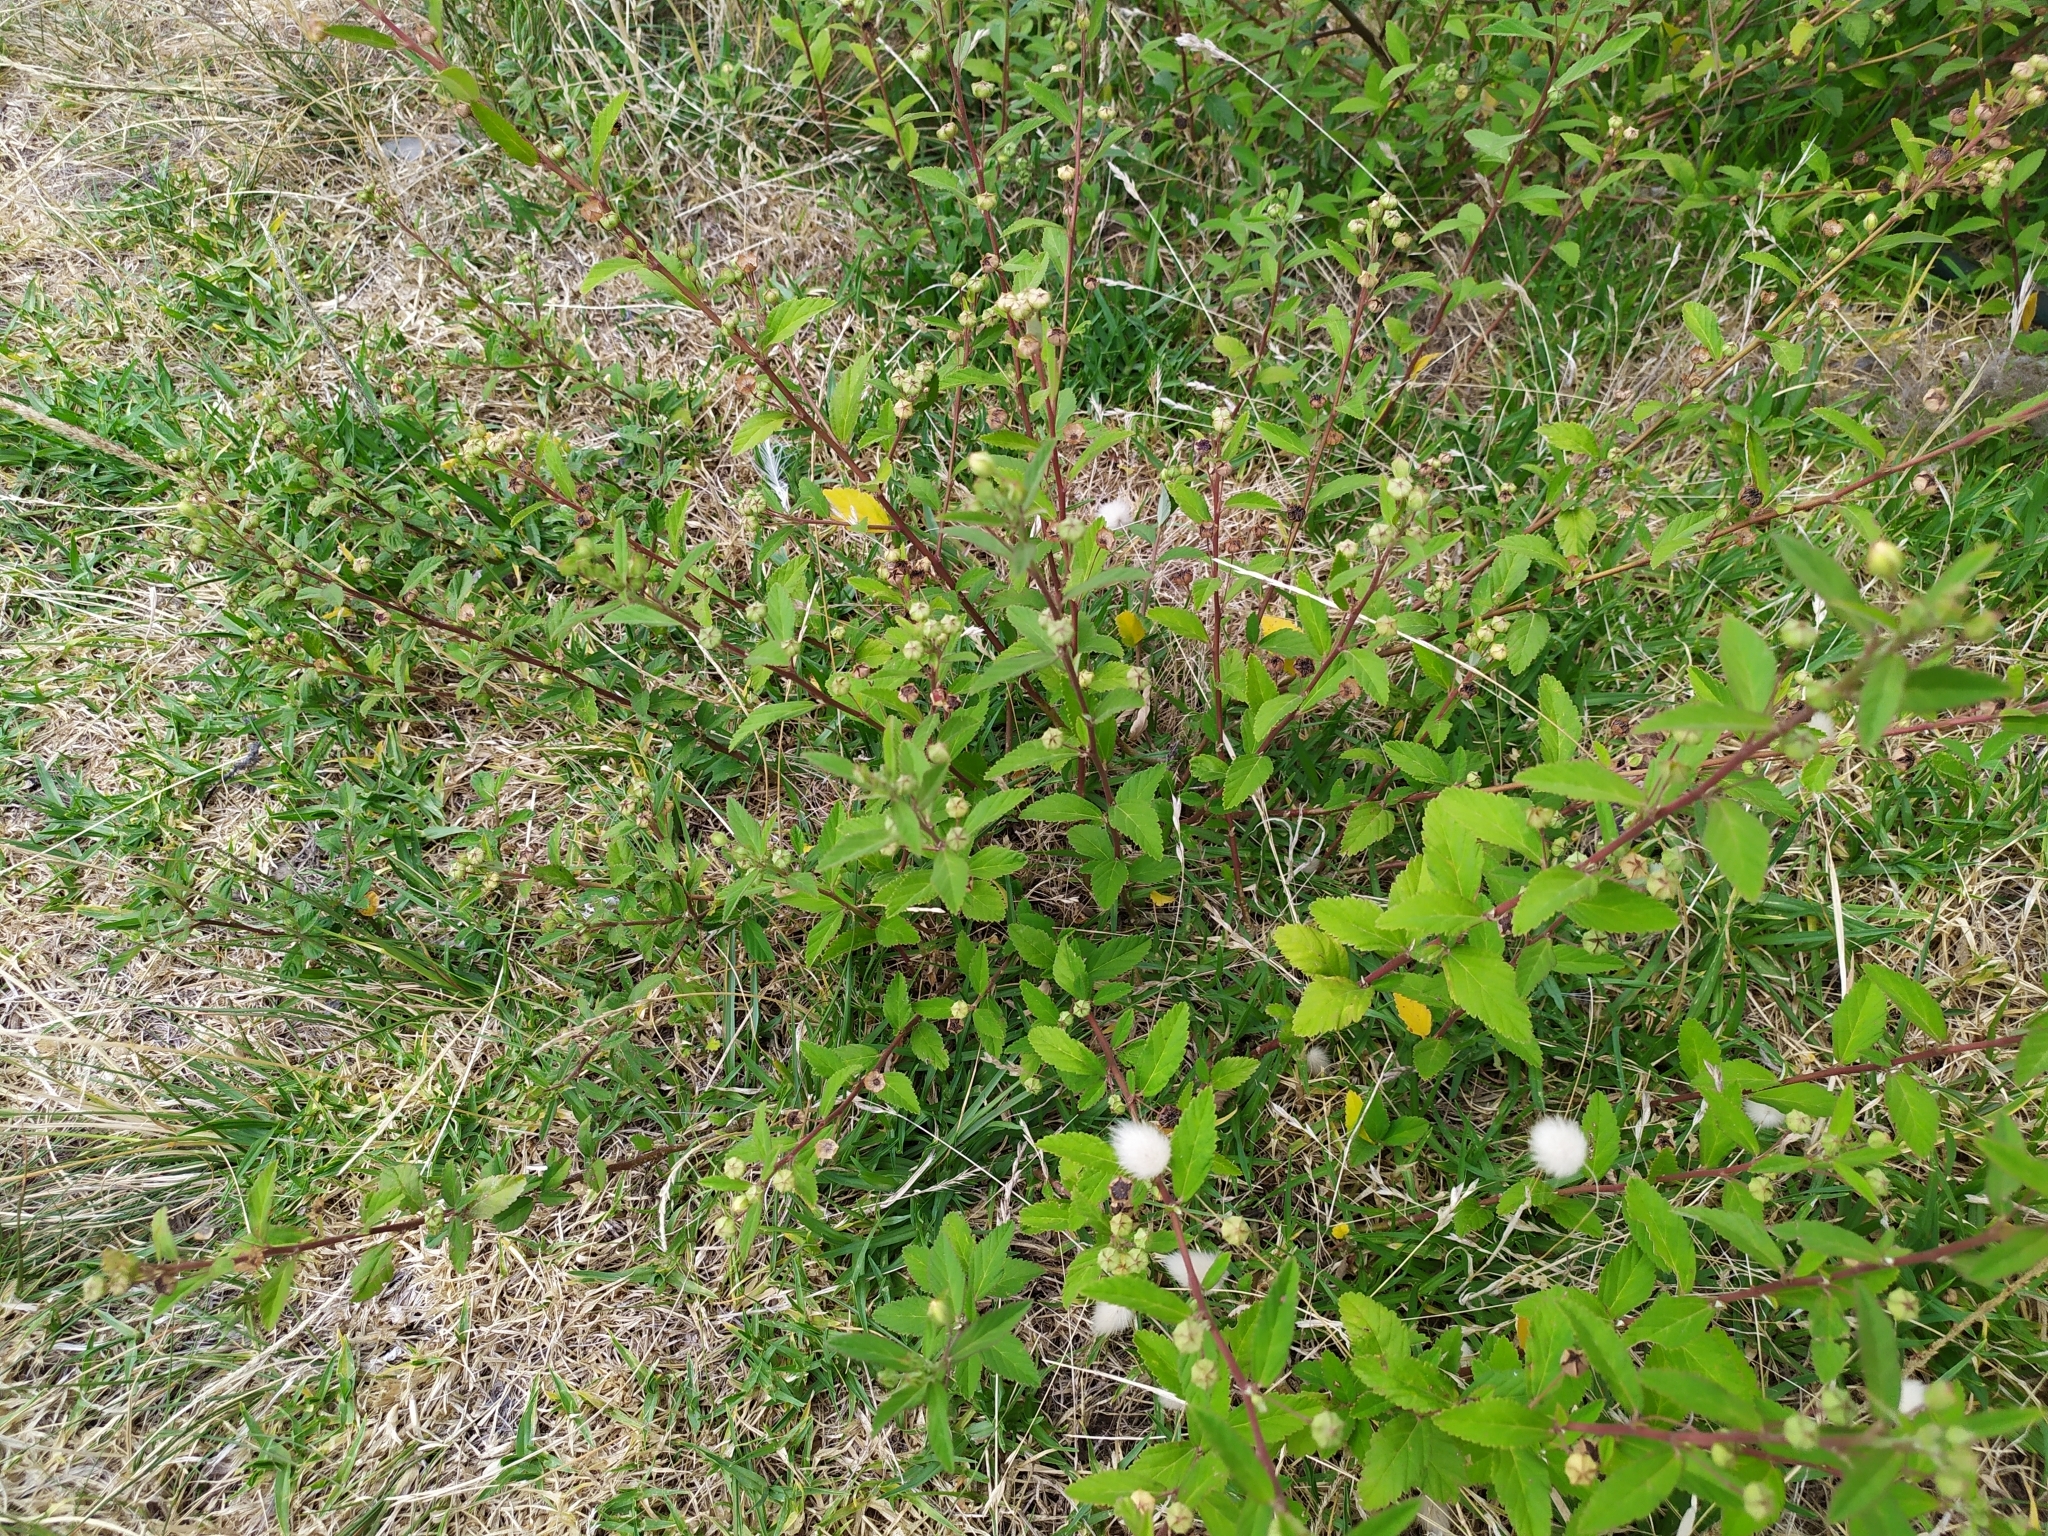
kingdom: Plantae
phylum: Tracheophyta
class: Magnoliopsida
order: Malvales
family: Malvaceae
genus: Sida
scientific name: Sida rhombifolia
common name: Queensland-hemp
